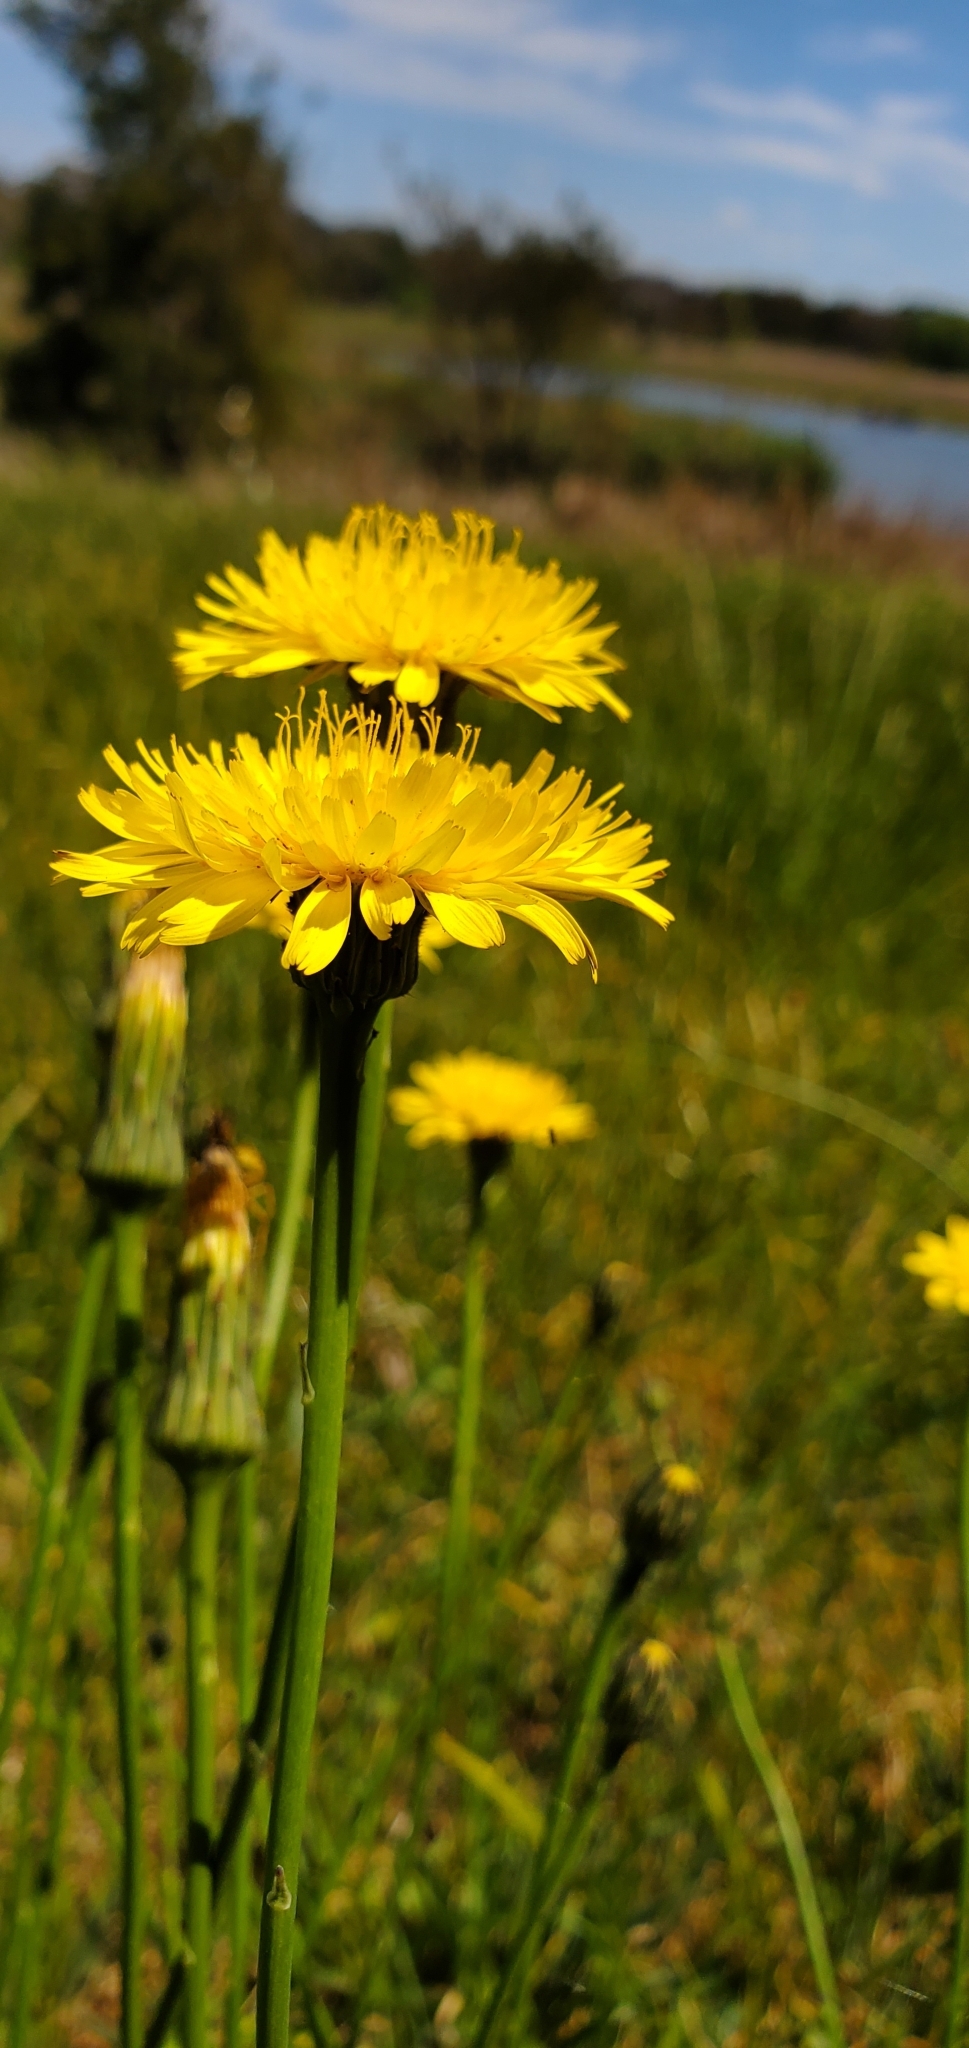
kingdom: Plantae
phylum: Tracheophyta
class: Magnoliopsida
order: Asterales
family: Asteraceae
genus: Hypochaeris
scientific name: Hypochaeris radicata
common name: Flatweed
